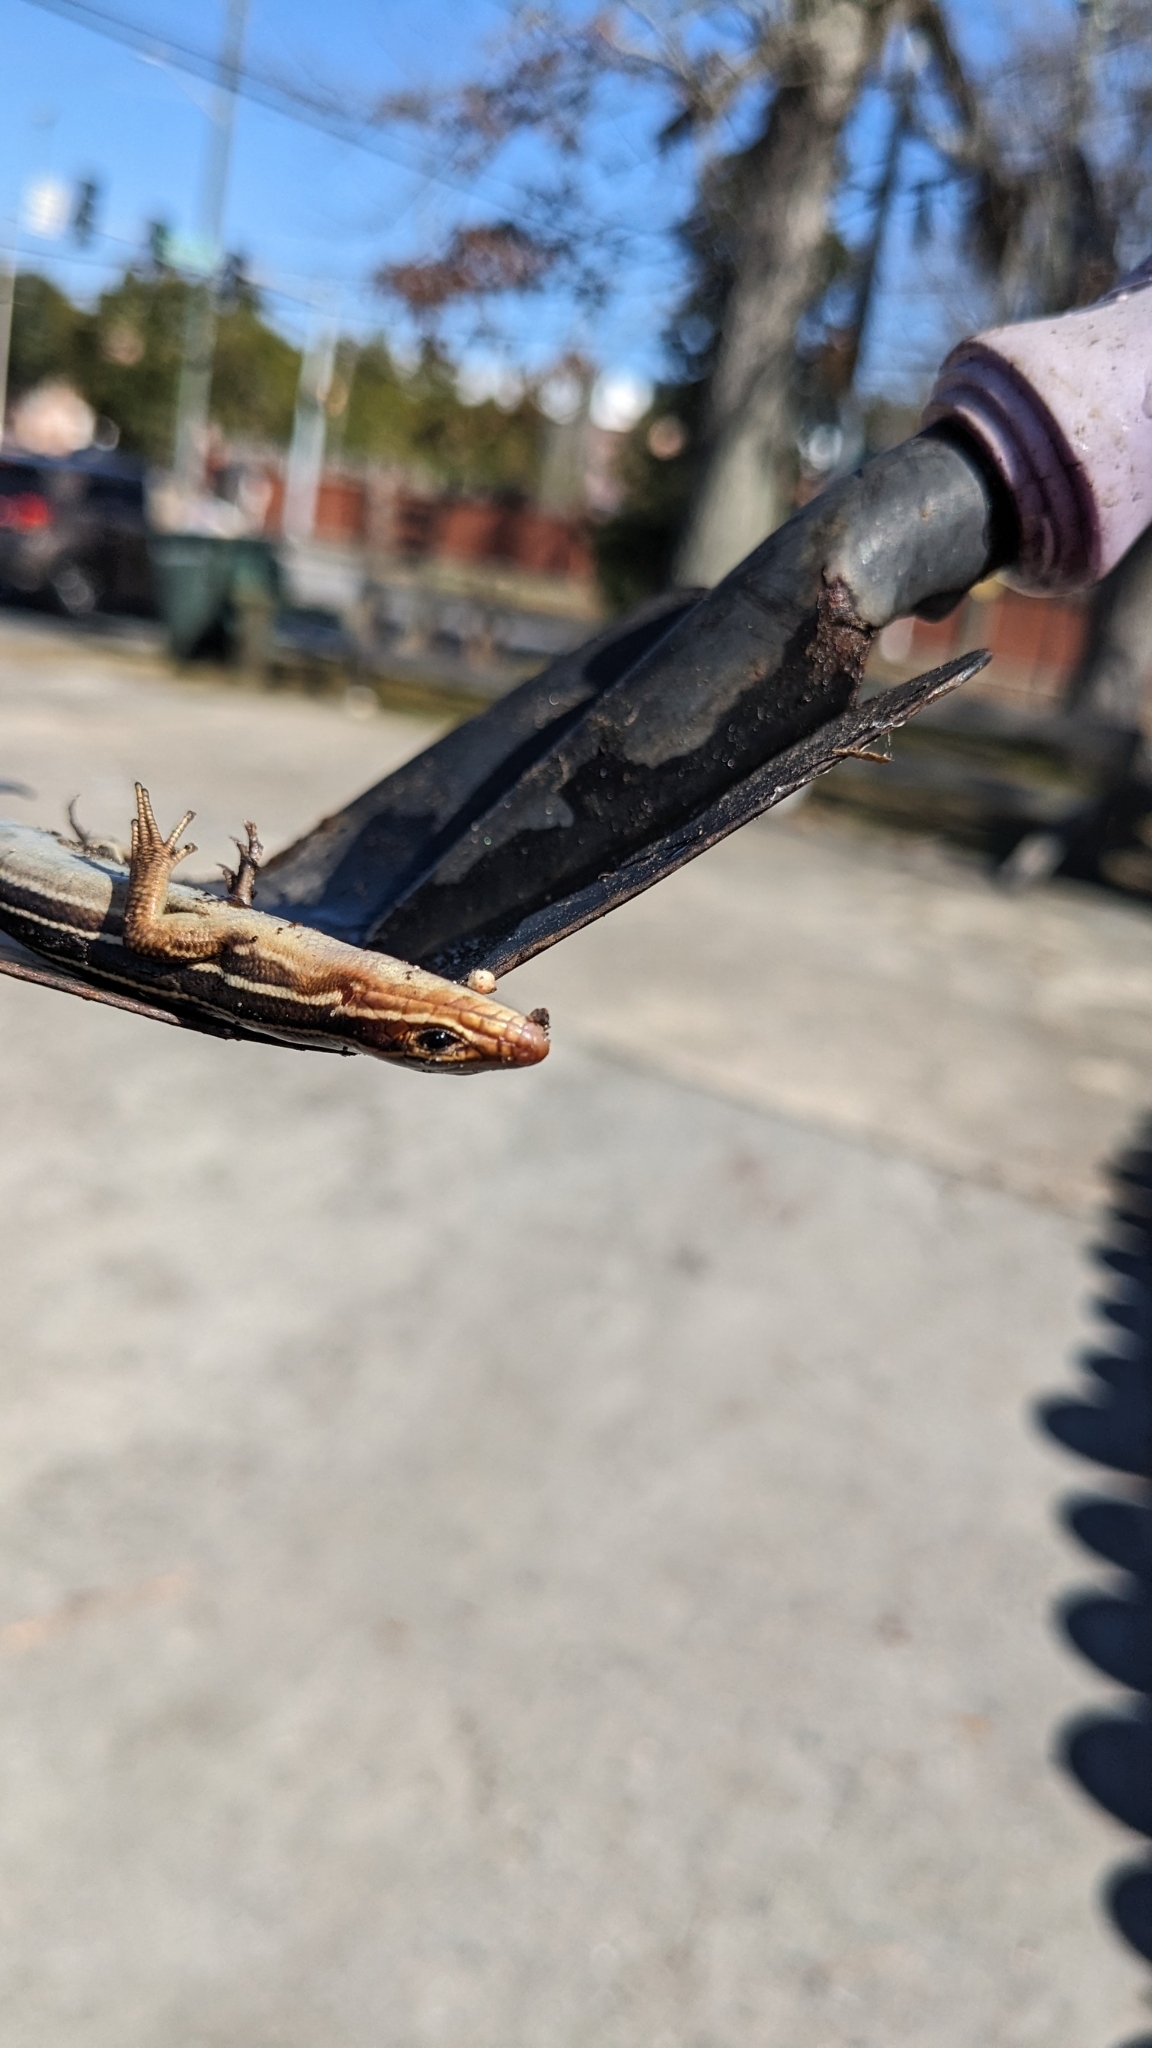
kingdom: Animalia
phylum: Chordata
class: Squamata
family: Scincidae
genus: Plestiodon
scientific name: Plestiodon laticeps
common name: Broadhead skink
